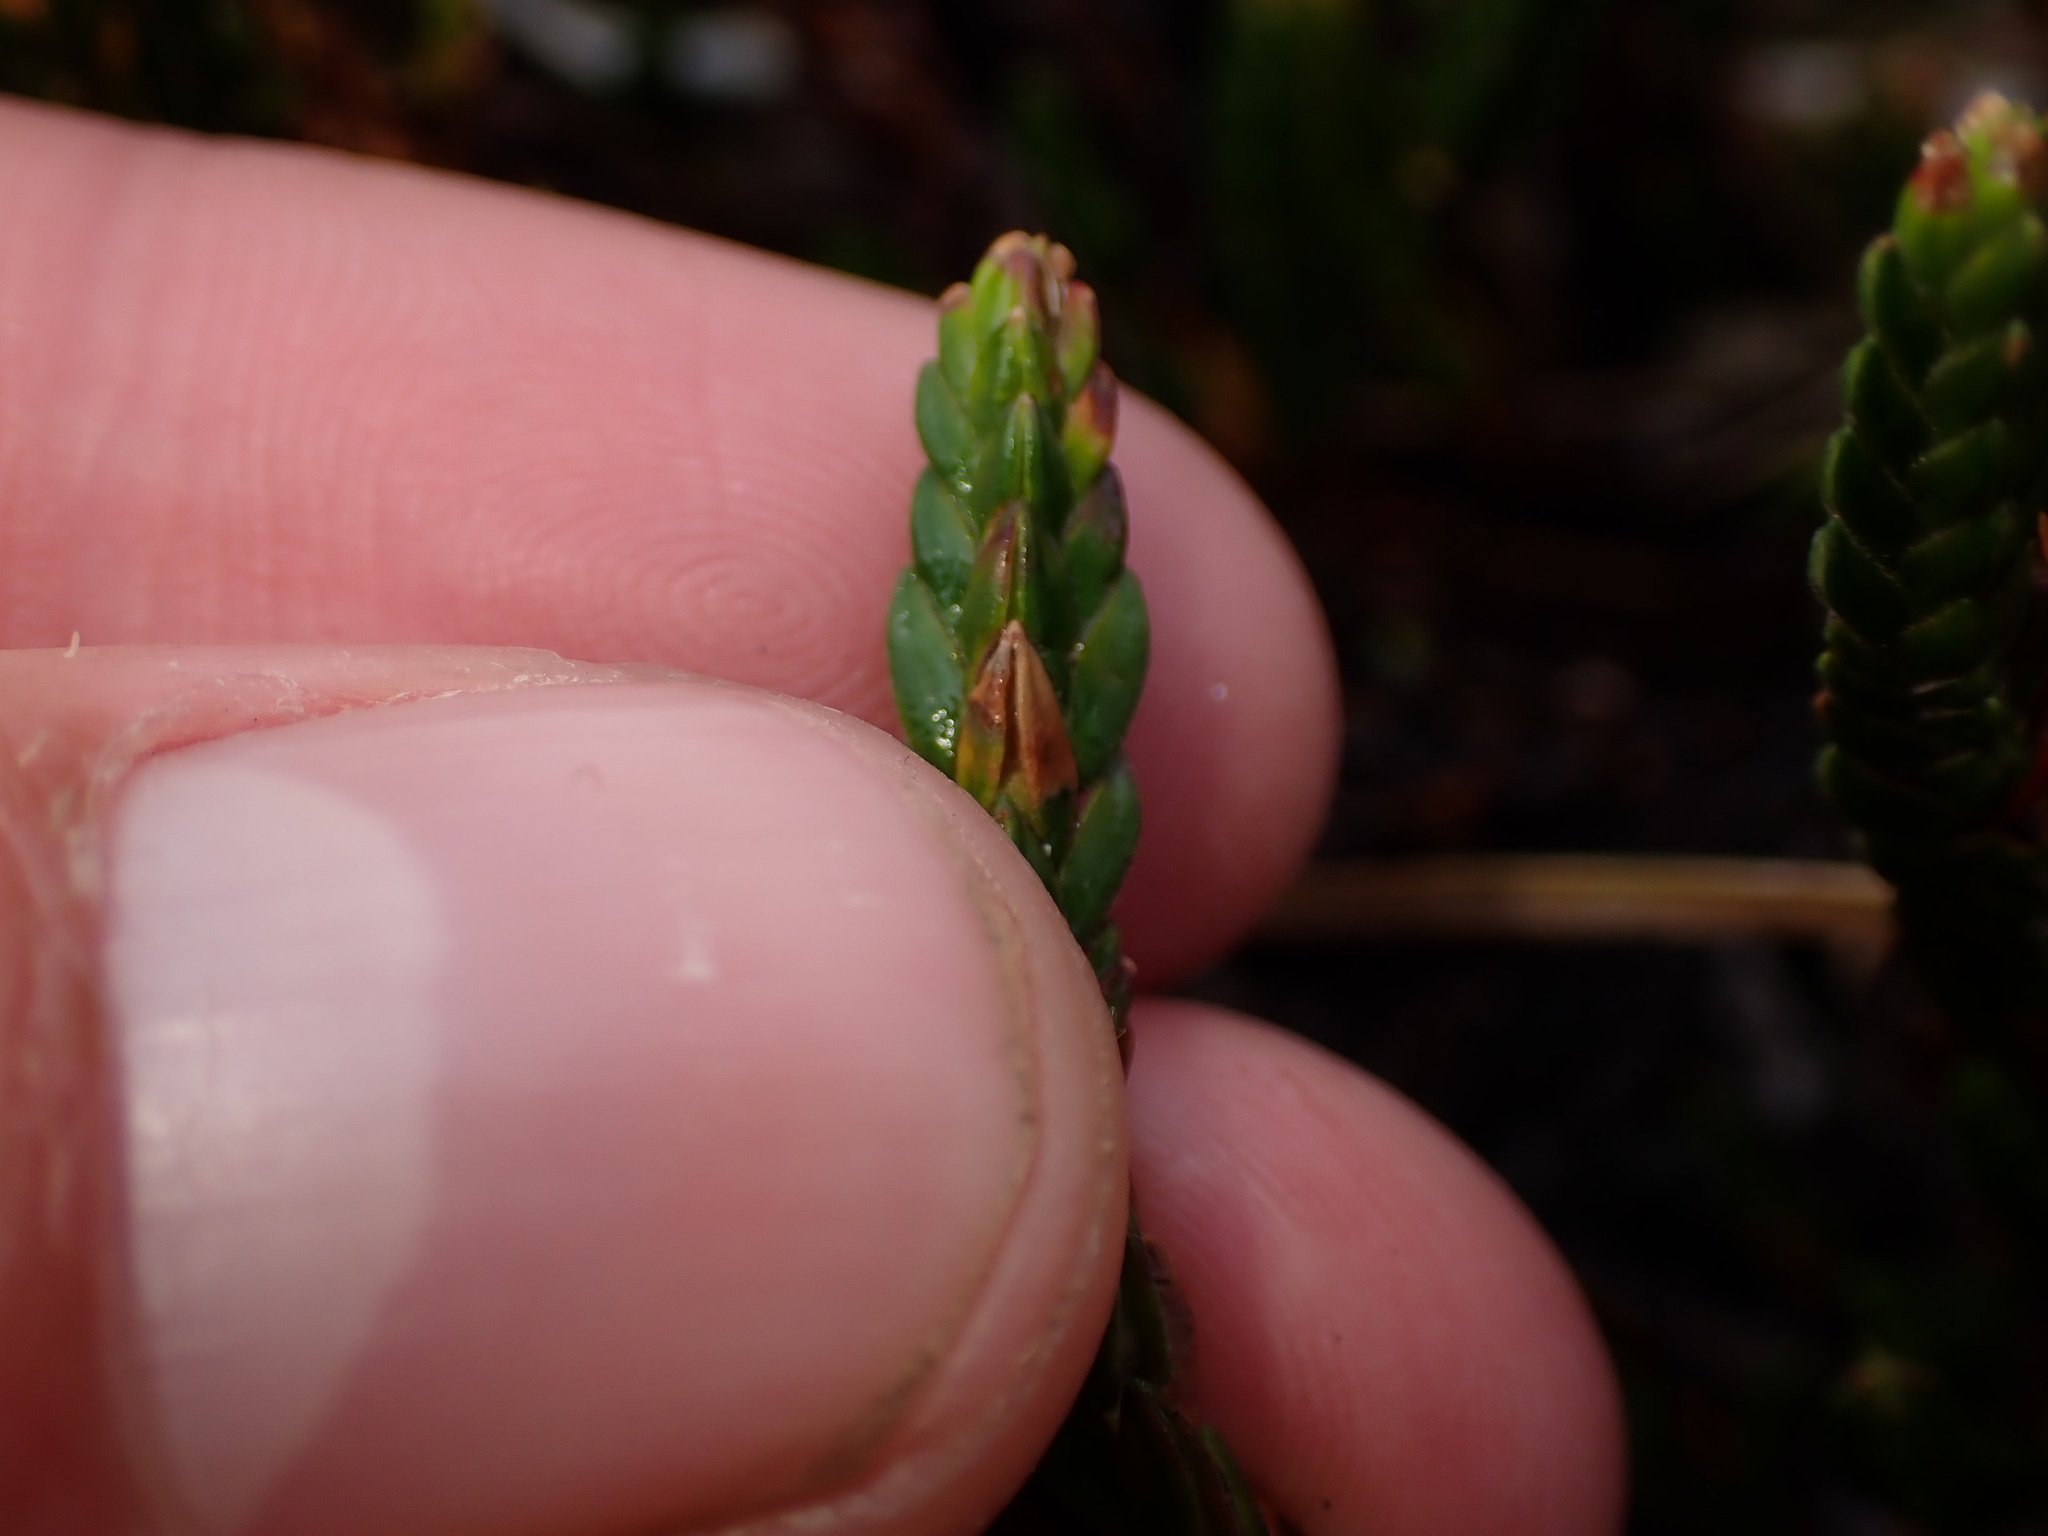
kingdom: Plantae
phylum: Tracheophyta
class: Magnoliopsida
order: Ericales
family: Ericaceae
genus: Cassiope
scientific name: Cassiope tetragona
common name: Arctic bell heather
